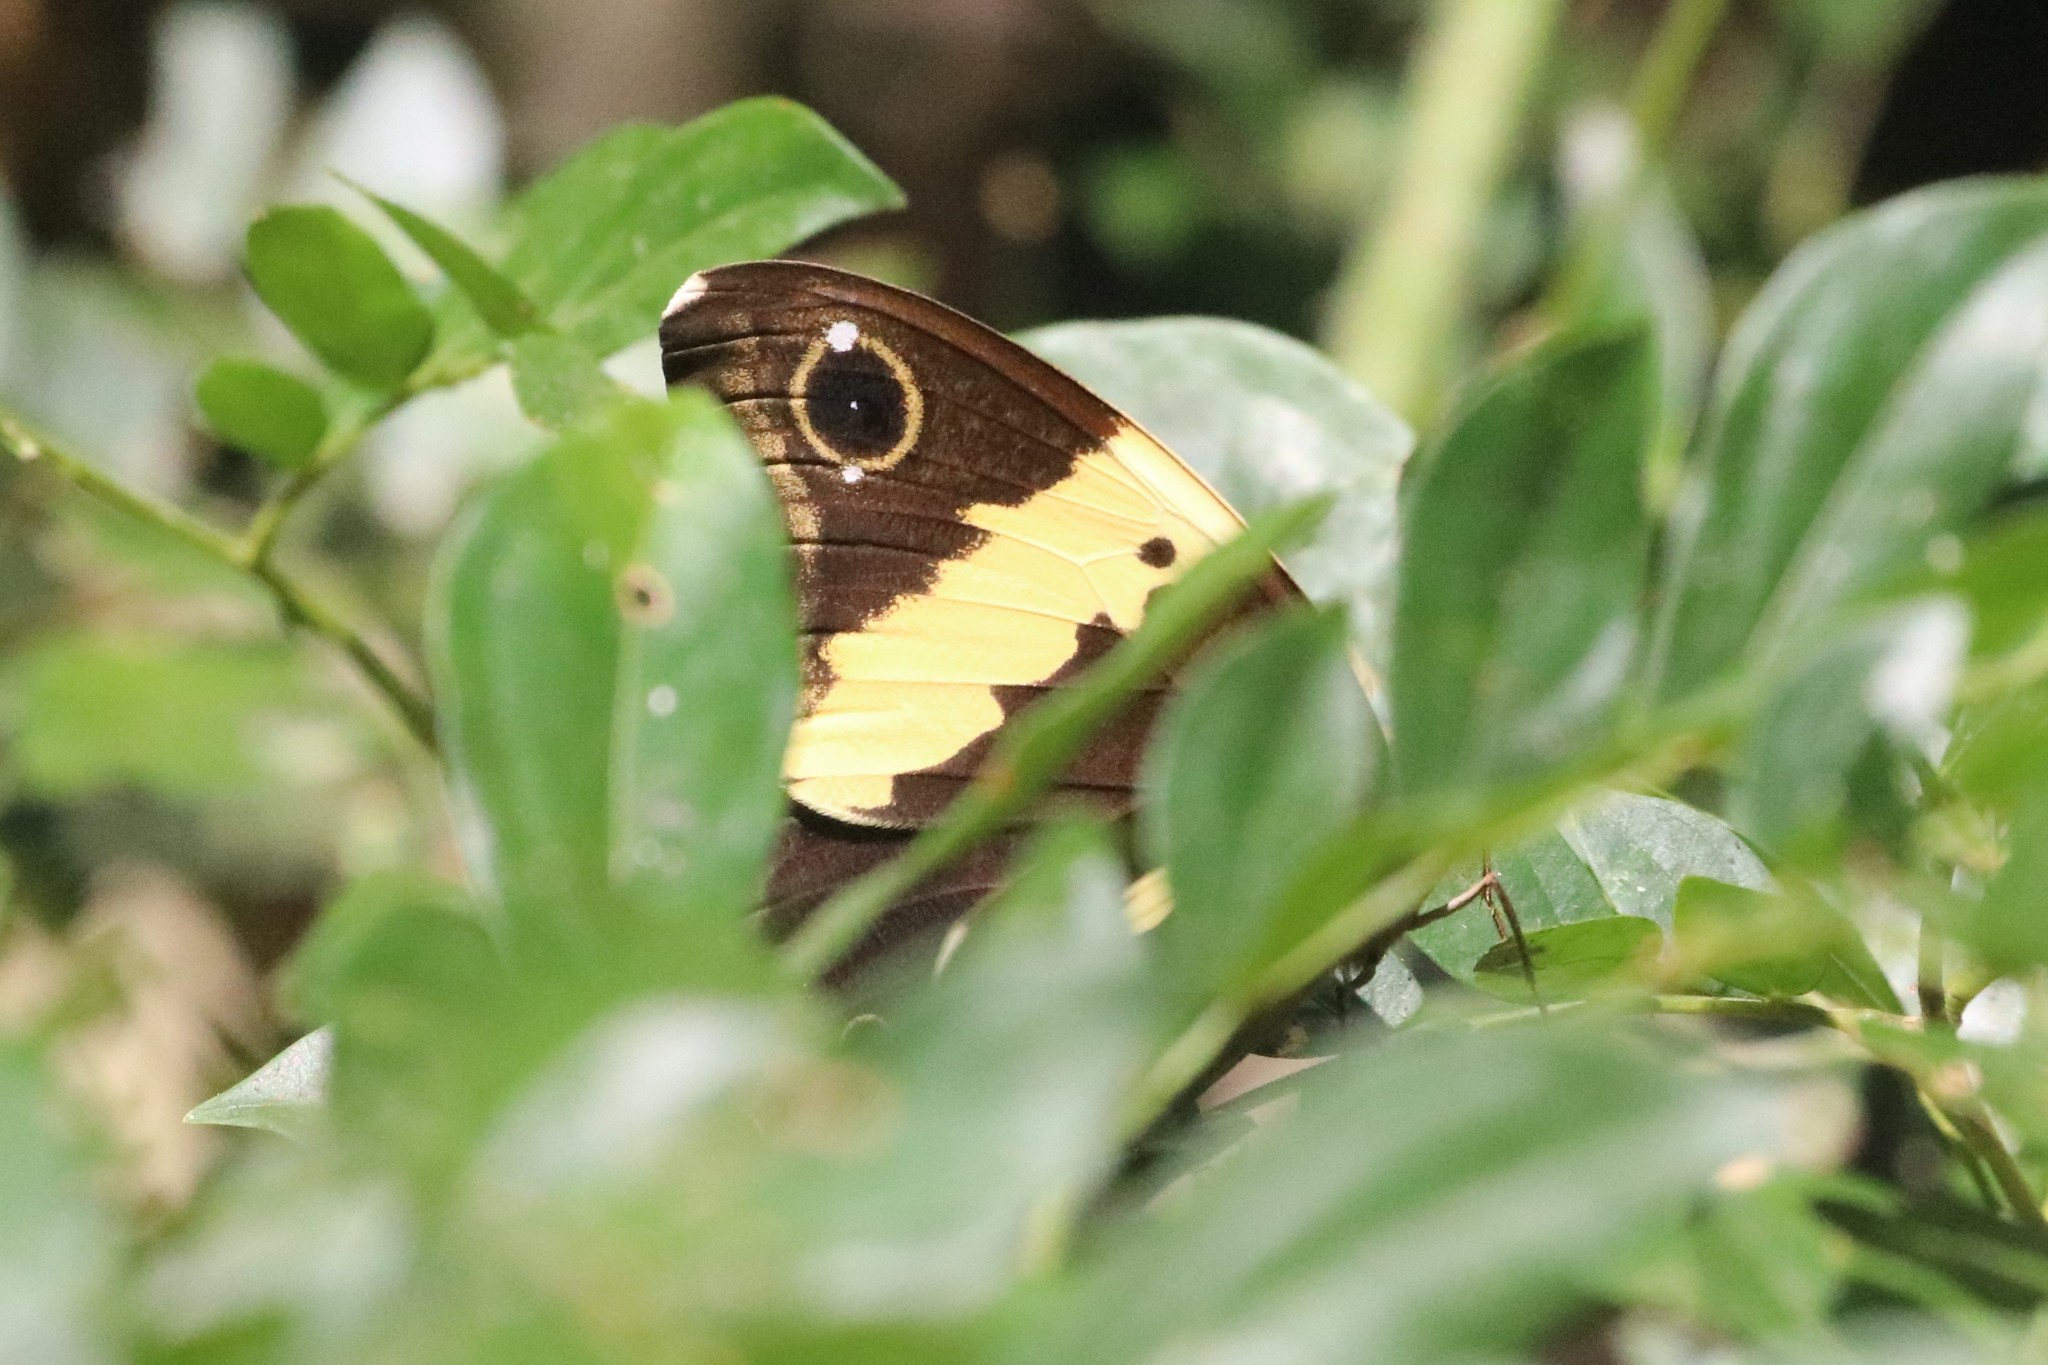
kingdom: Animalia
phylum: Arthropoda
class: Insecta
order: Lepidoptera
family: Nymphalidae
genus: Neorina
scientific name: Neorina crishna
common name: Tailed yellow owl
